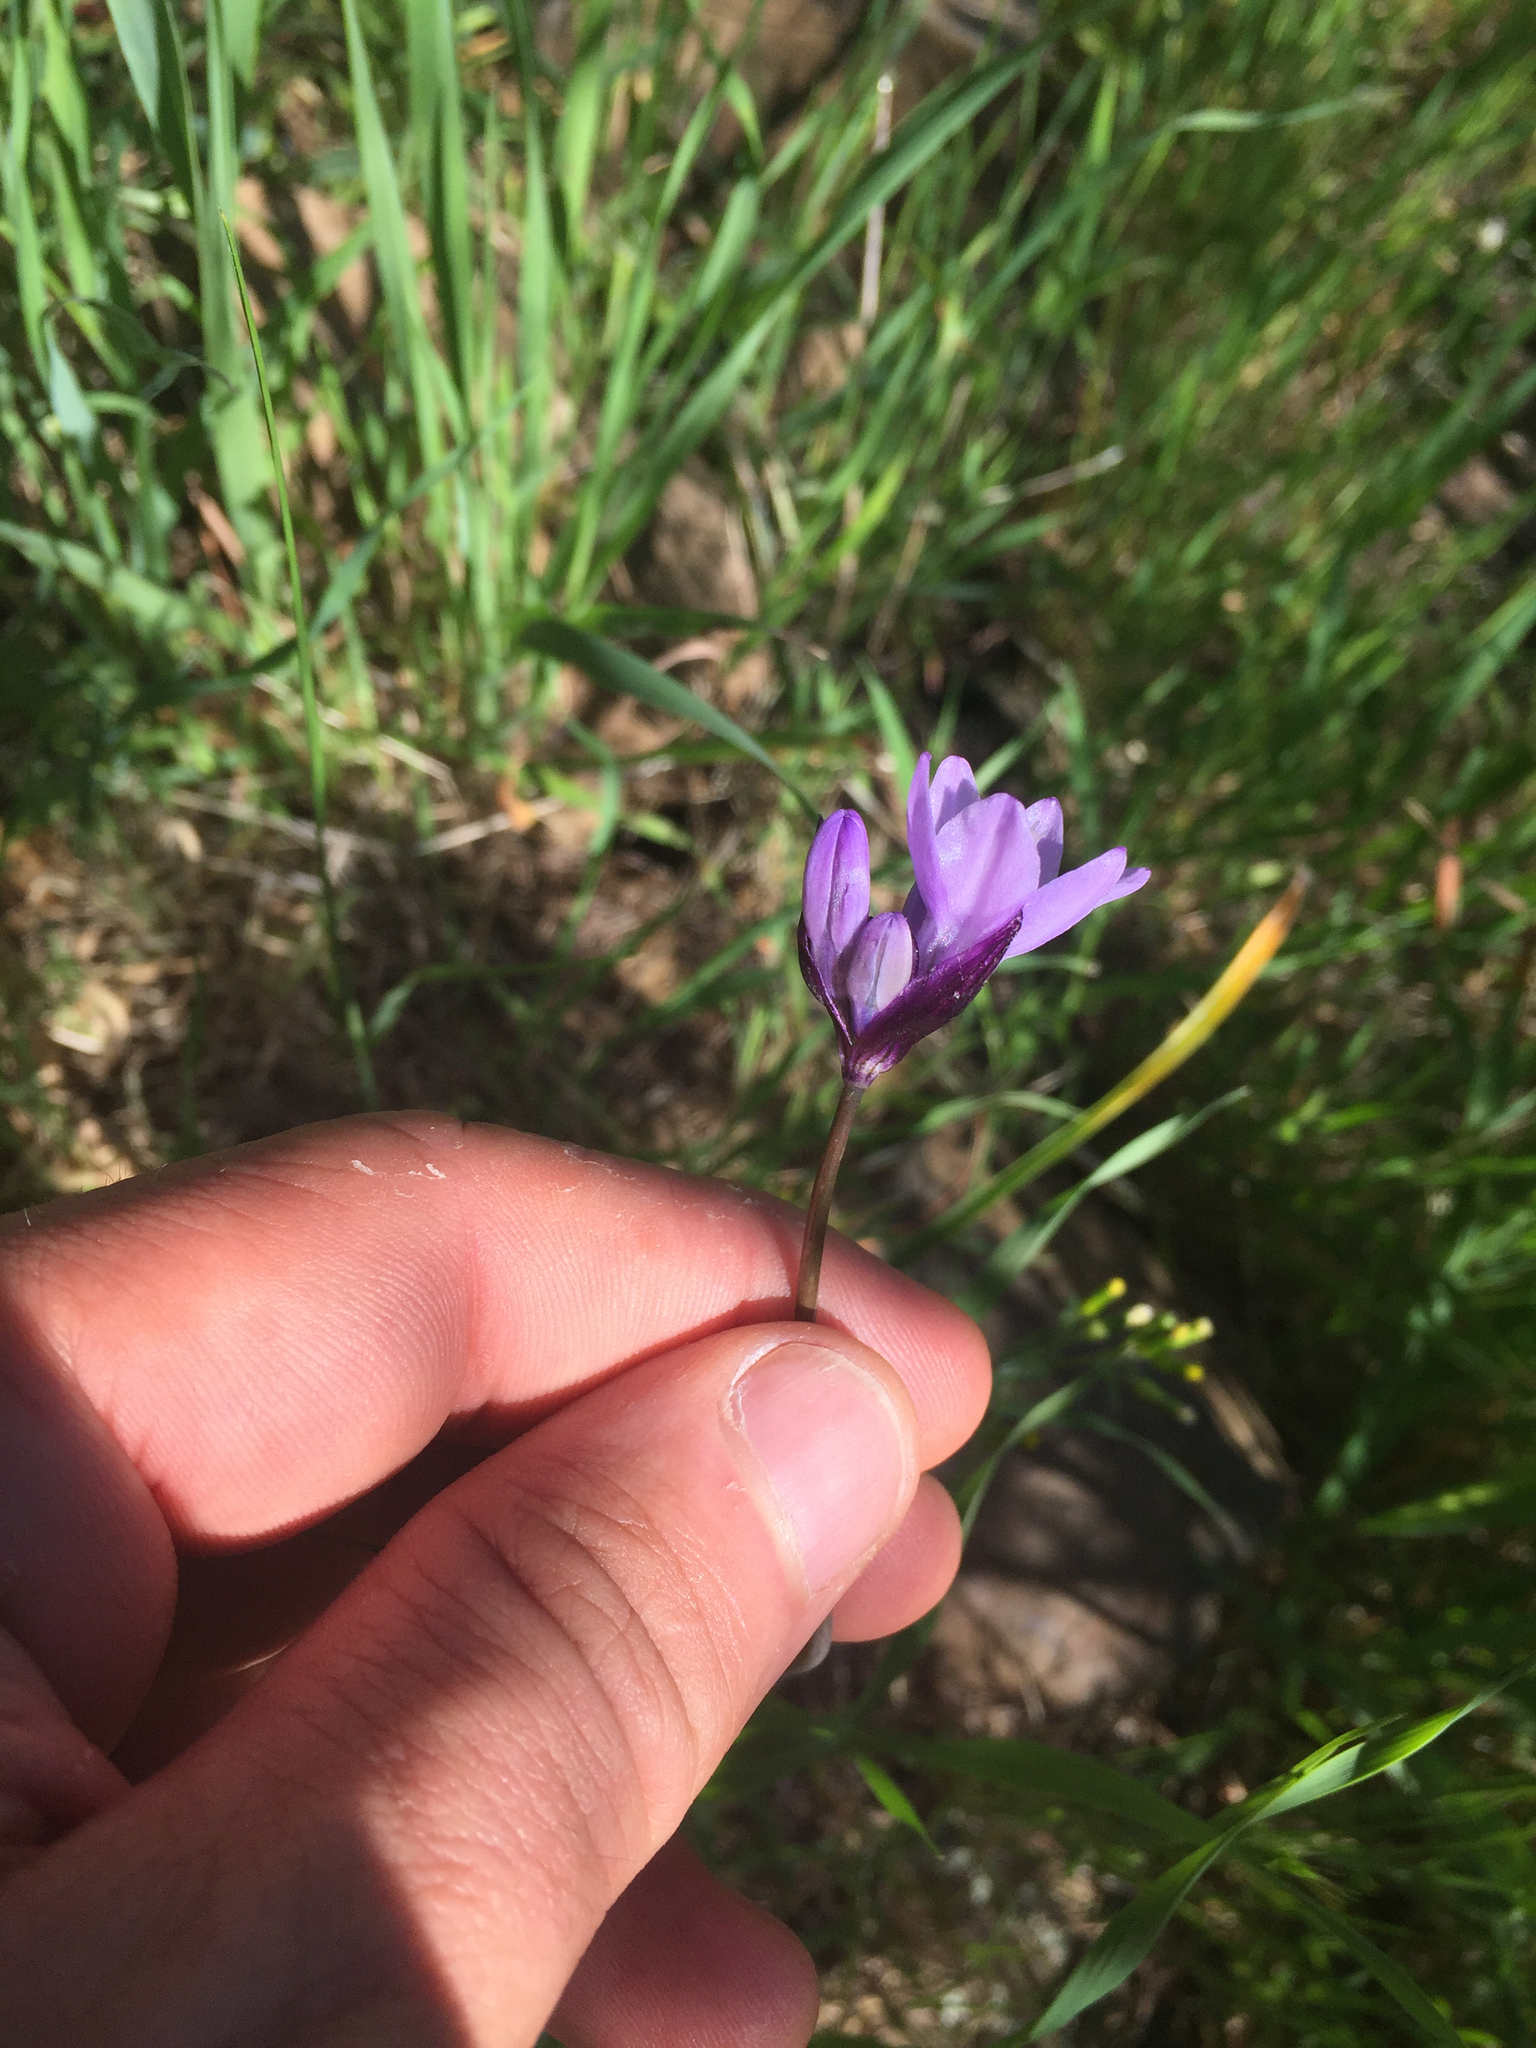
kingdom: Plantae
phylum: Tracheophyta
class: Liliopsida
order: Asparagales
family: Asparagaceae
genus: Dipterostemon
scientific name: Dipterostemon capitatus
